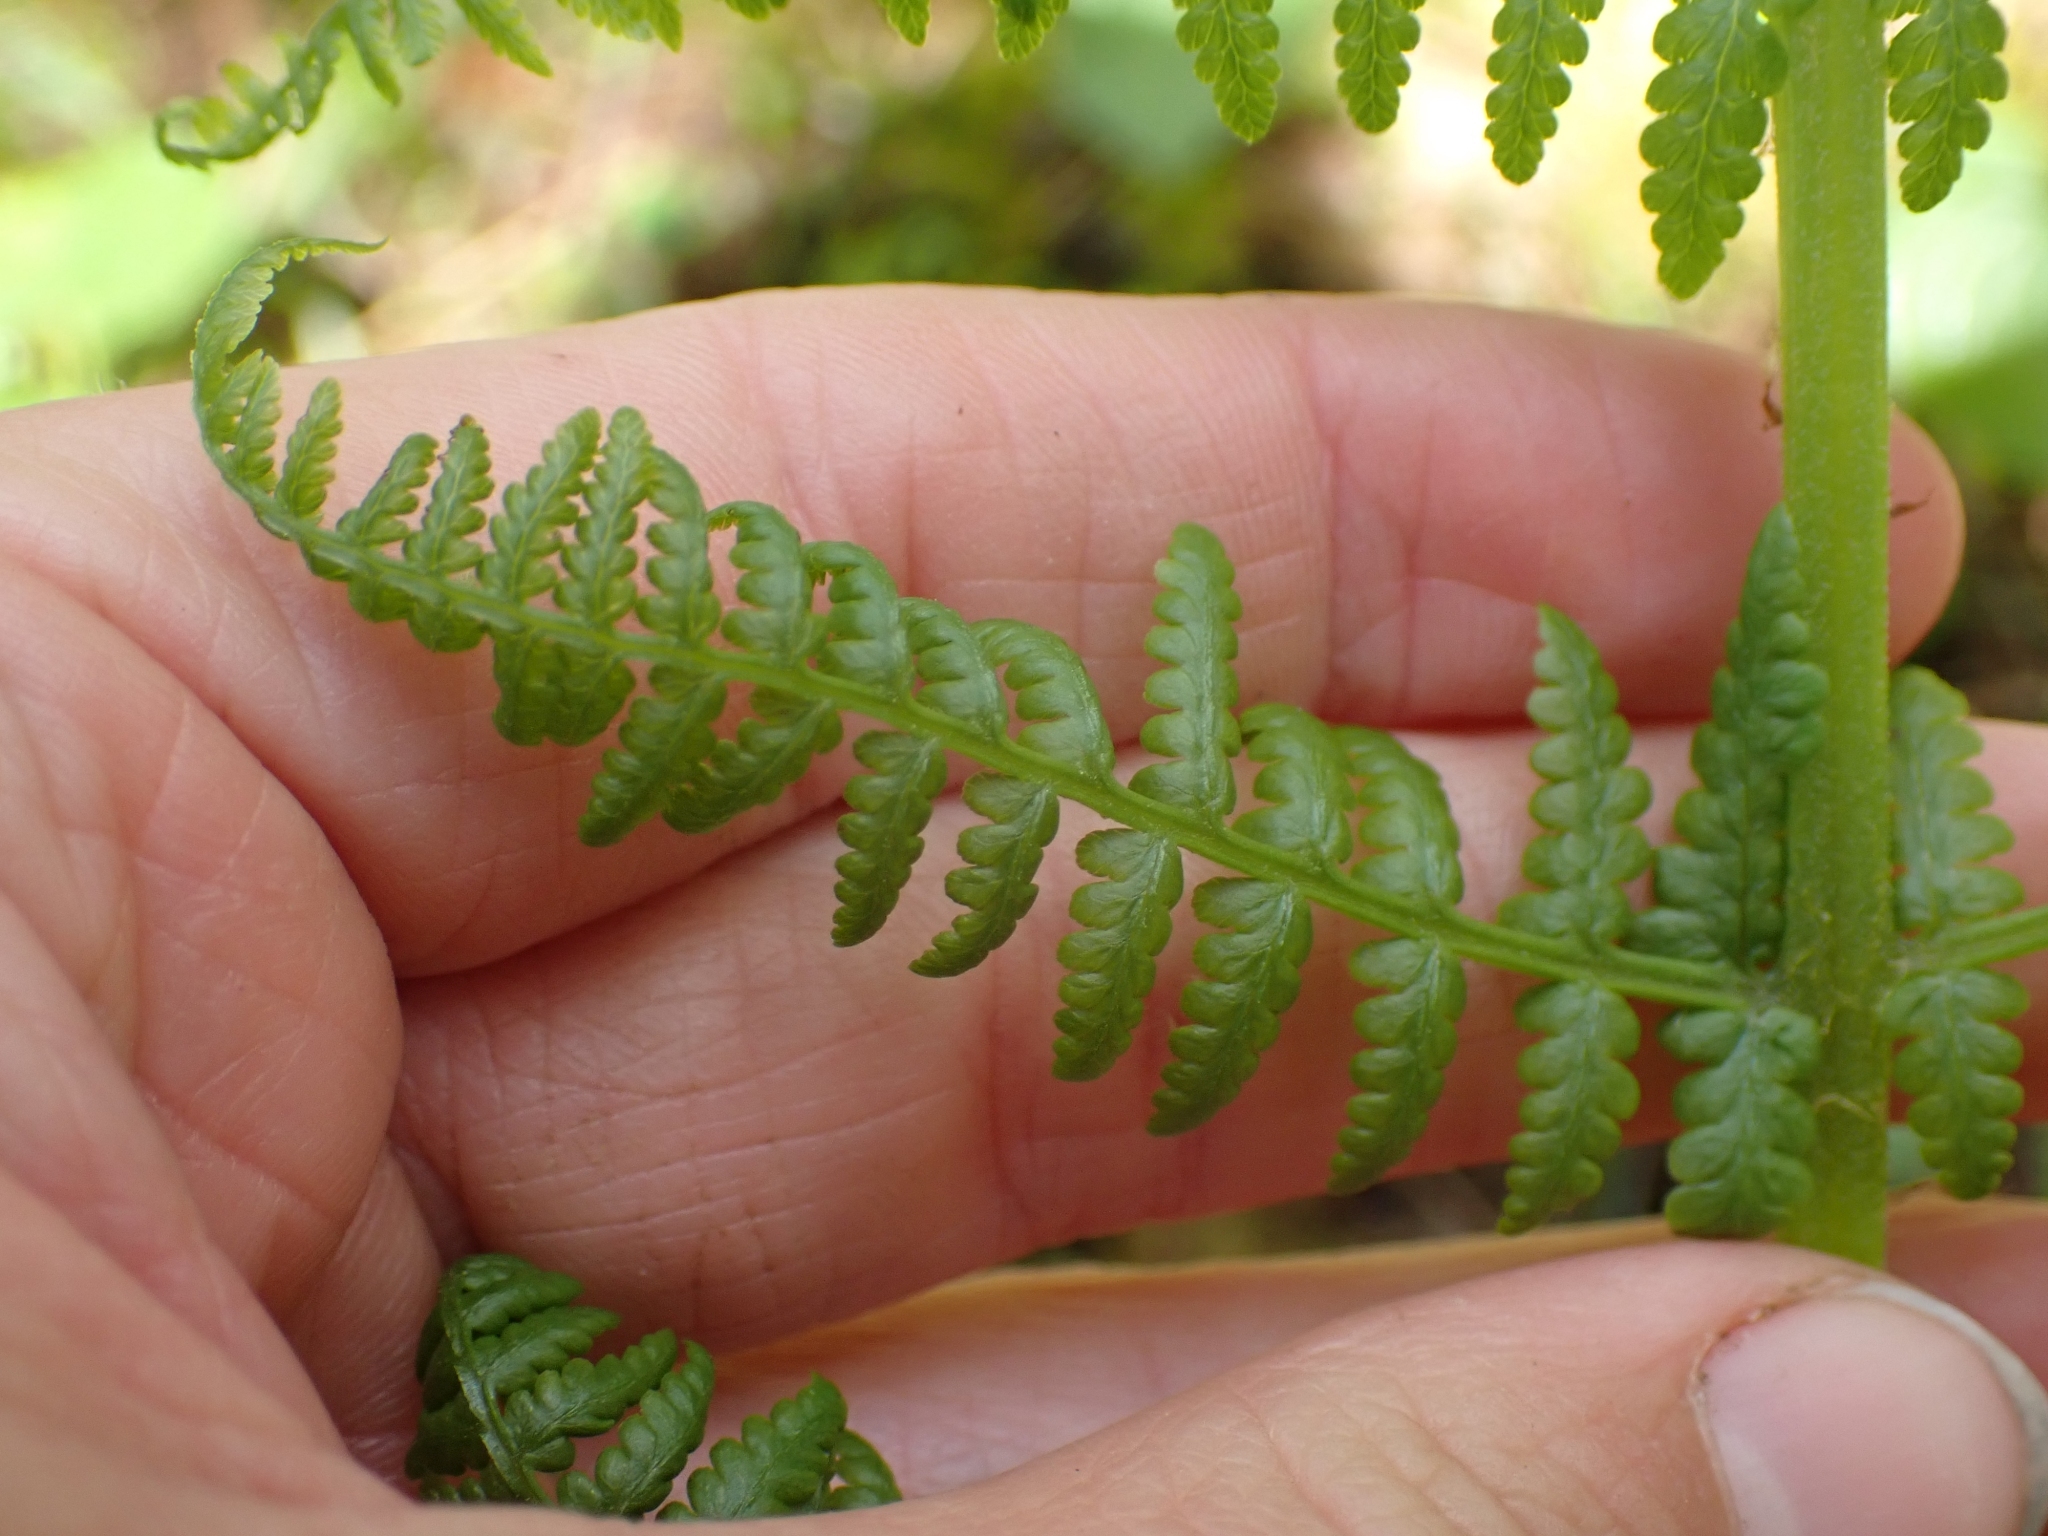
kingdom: Plantae
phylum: Tracheophyta
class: Polypodiopsida
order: Polypodiales
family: Athyriaceae
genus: Athyrium
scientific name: Athyrium filix-femina
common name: Lady fern
